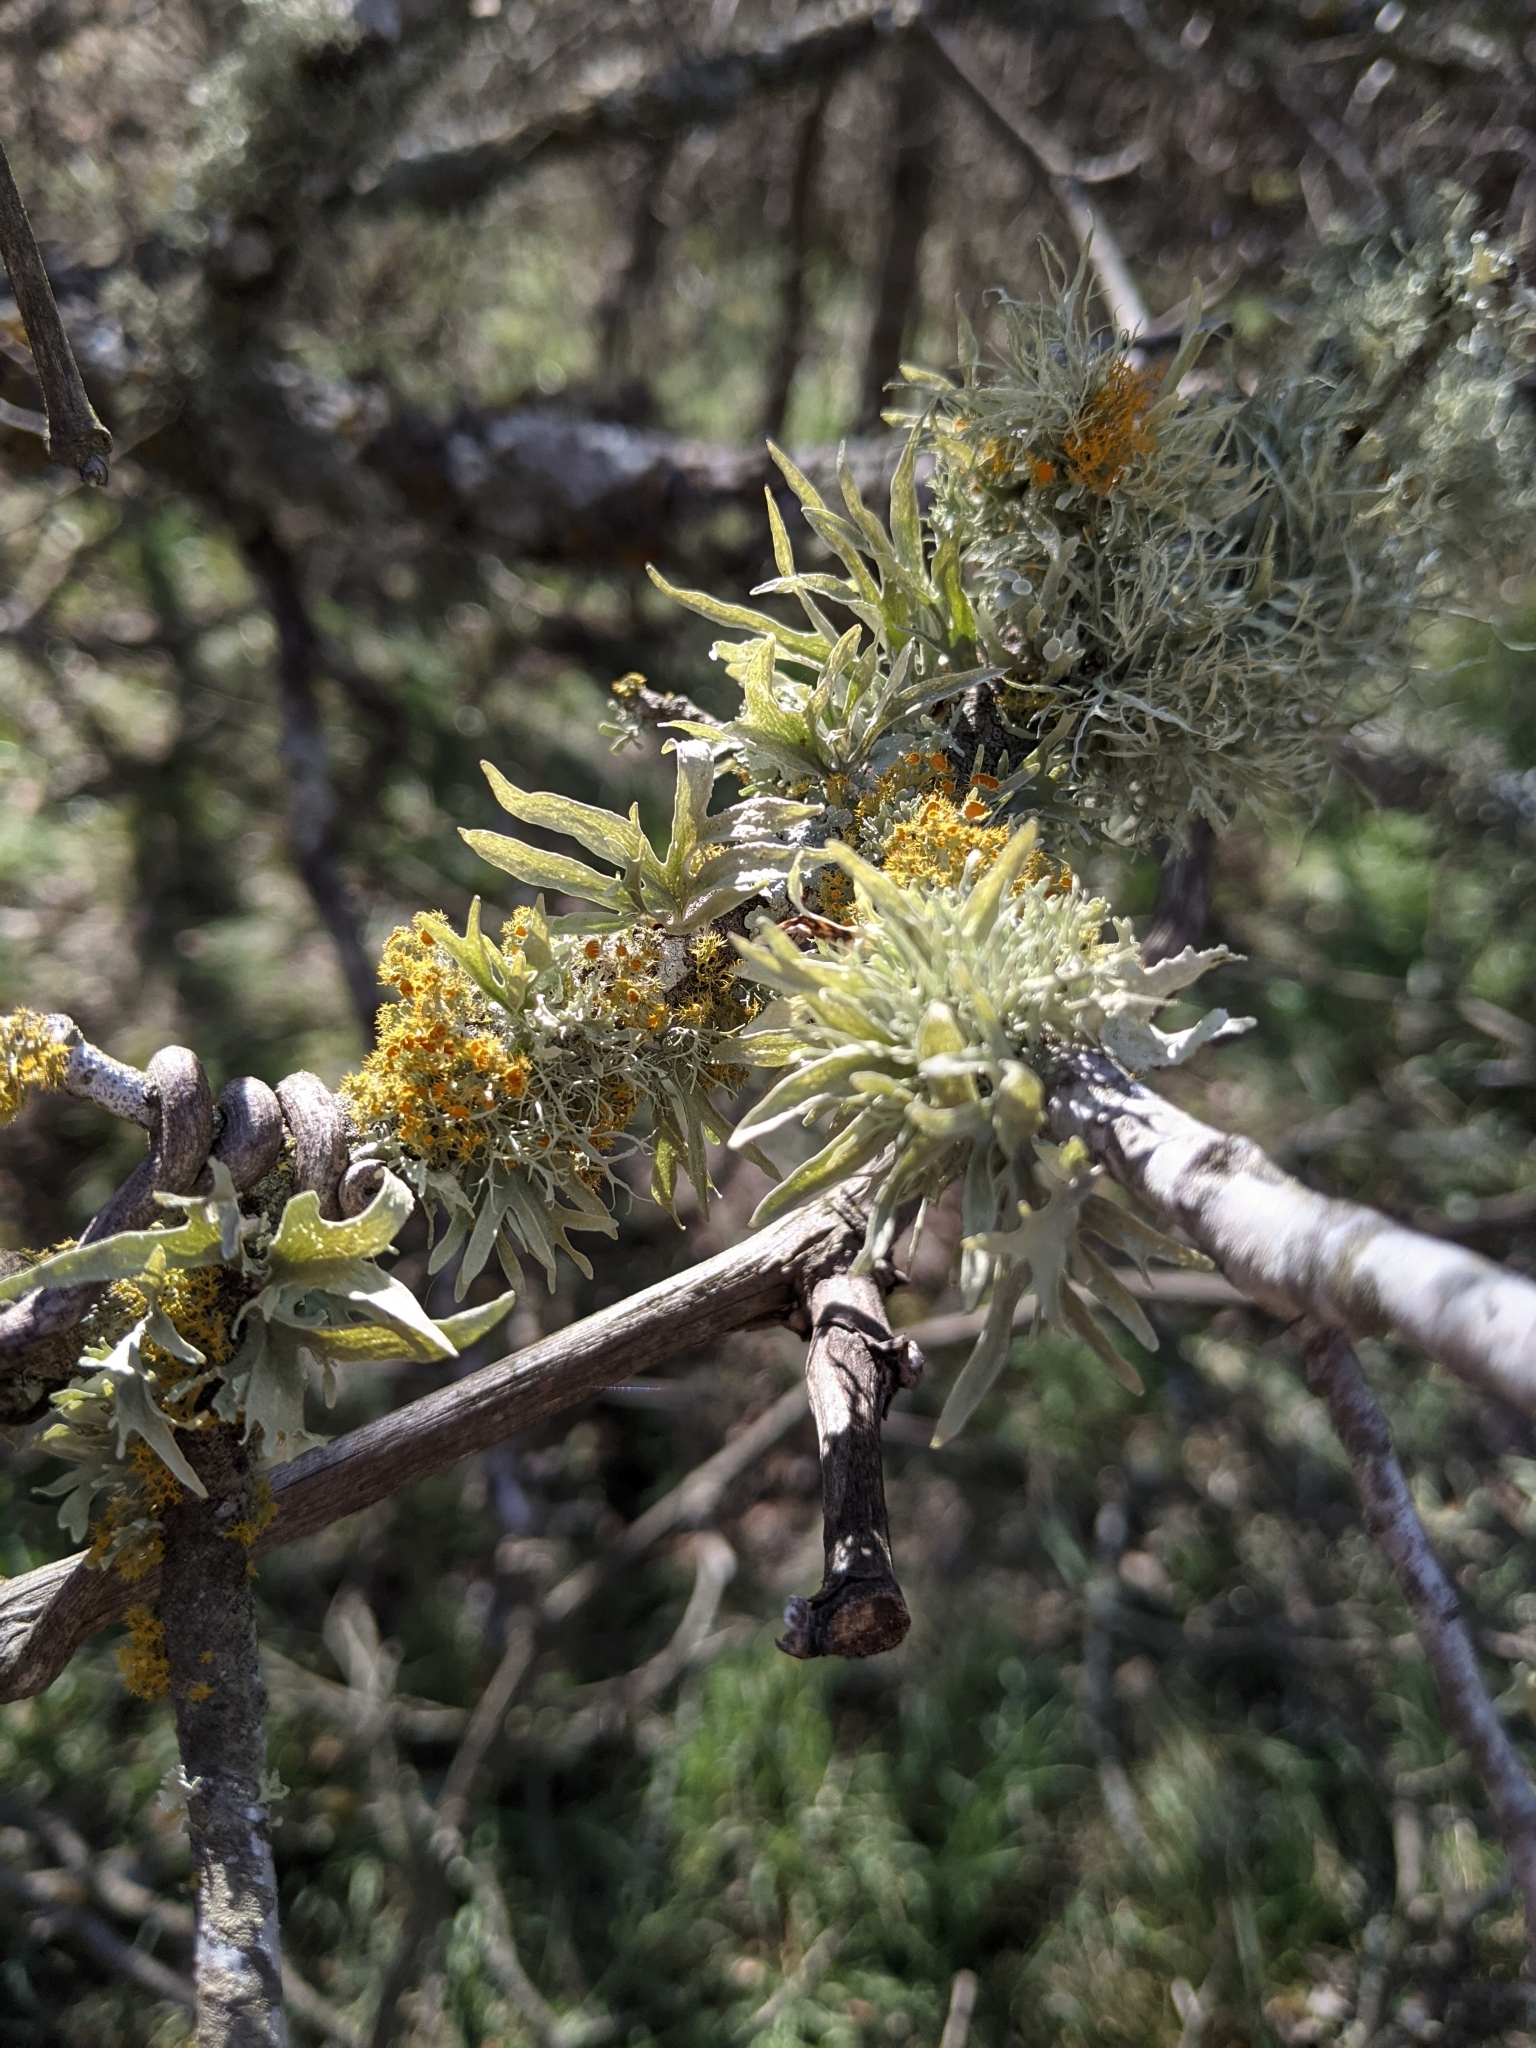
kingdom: Fungi
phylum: Ascomycota
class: Lecanoromycetes
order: Teloschistales
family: Teloschistaceae
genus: Niorma
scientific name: Niorma chrysophthalma
